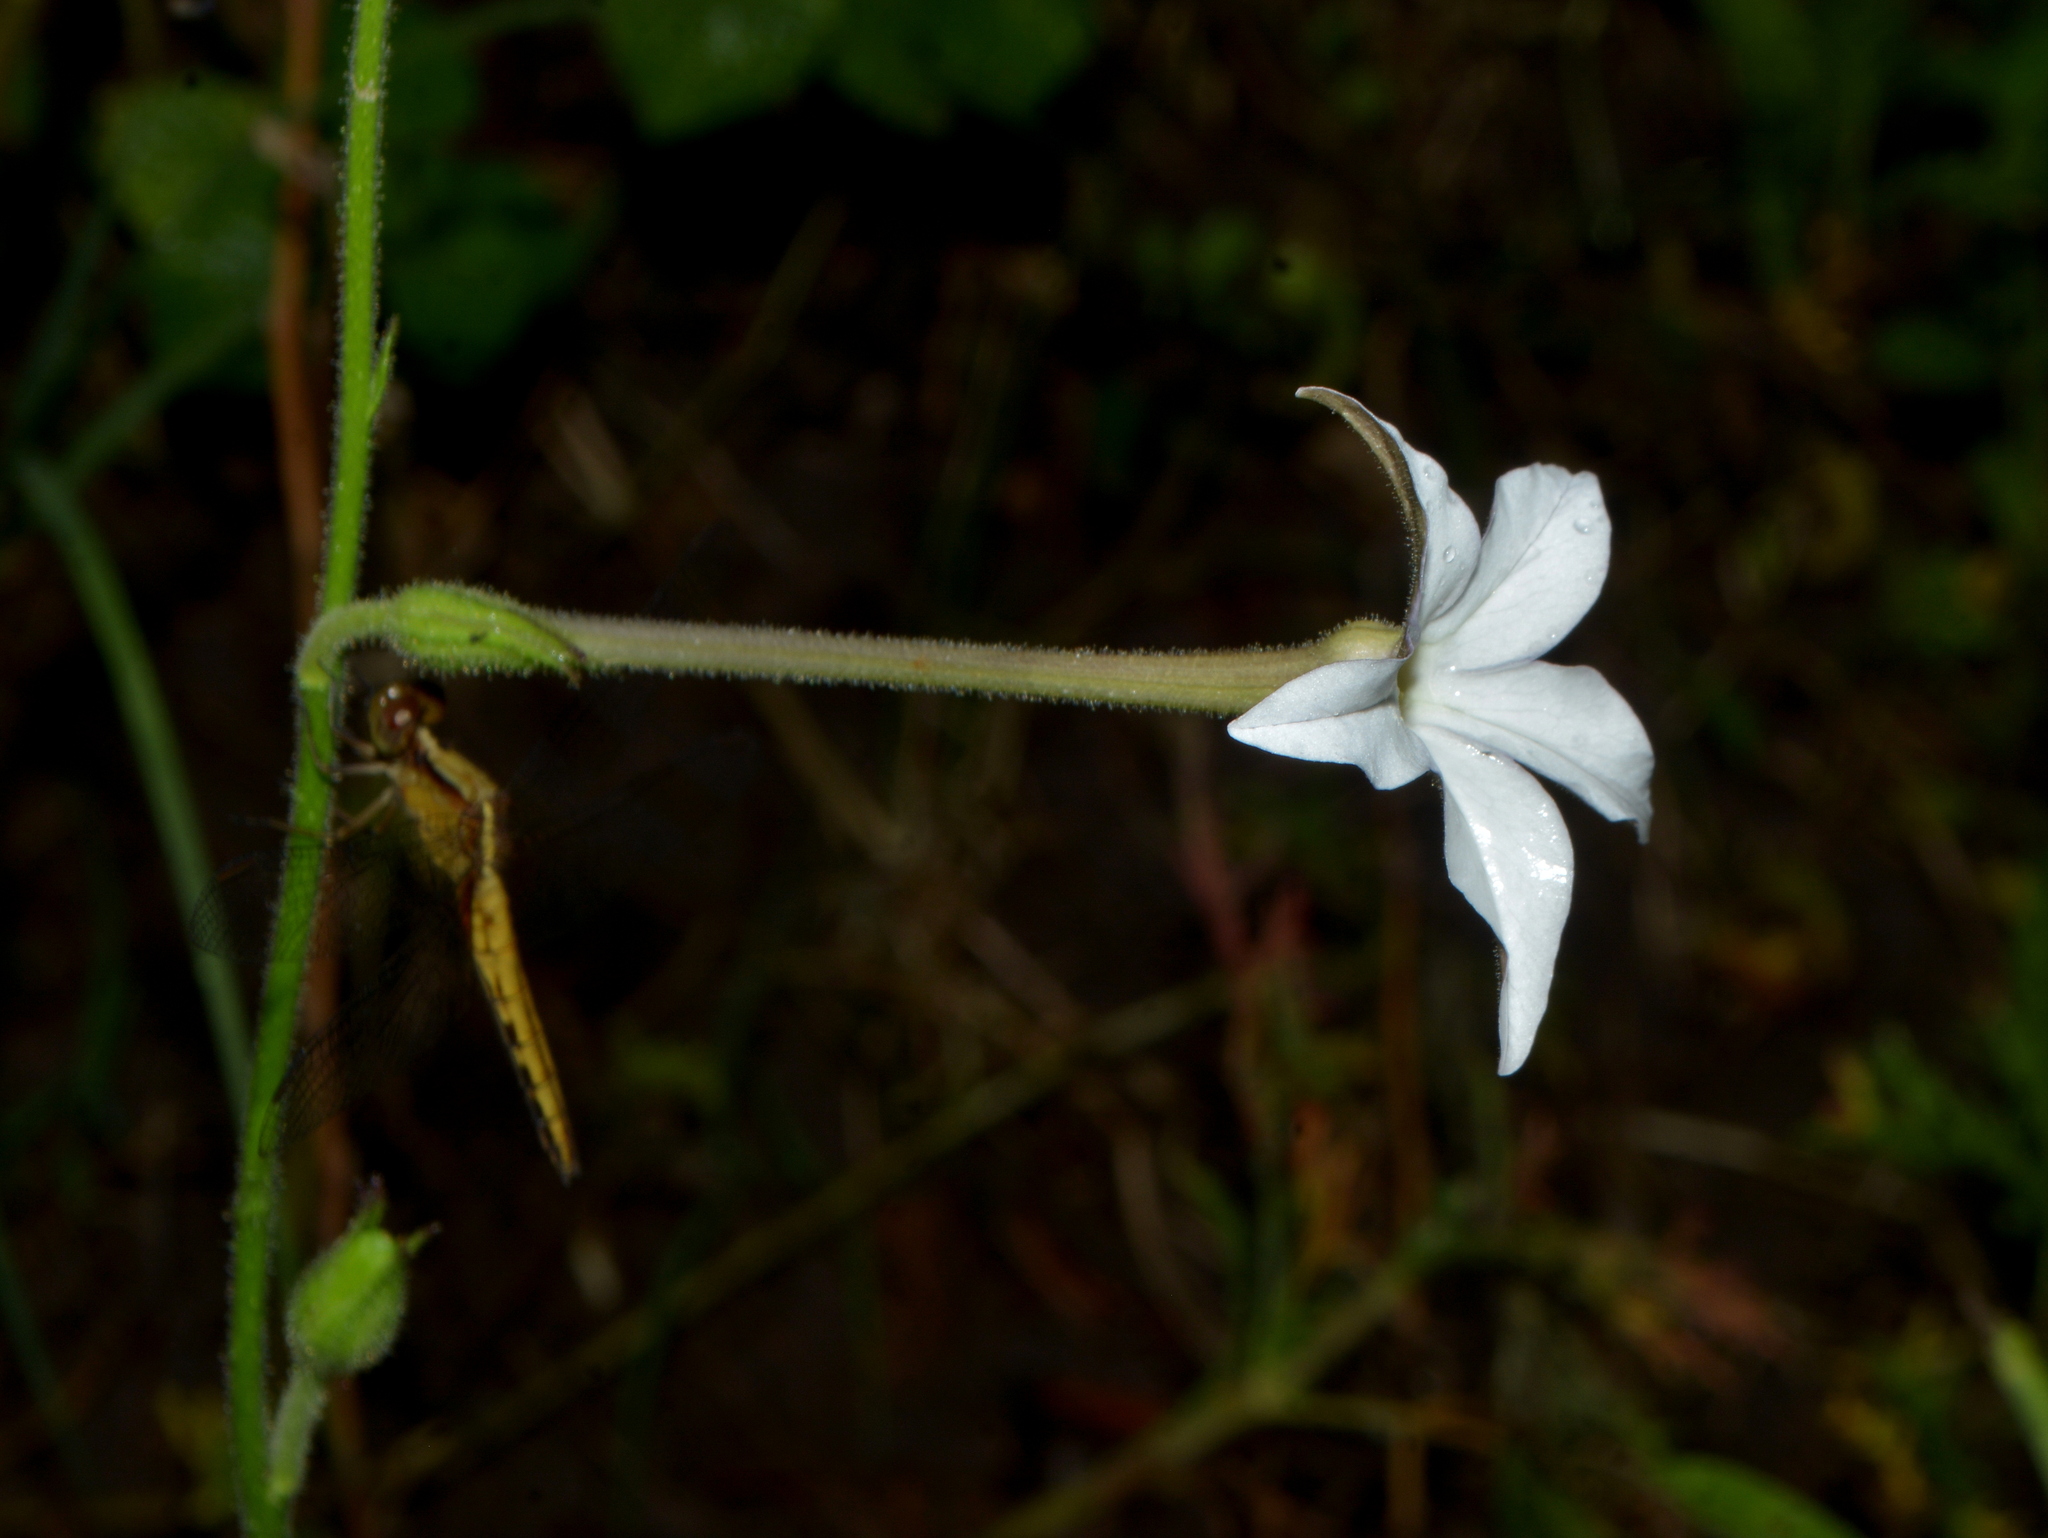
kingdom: Plantae
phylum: Tracheophyta
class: Magnoliopsida
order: Solanales
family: Solanaceae
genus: Nicotiana
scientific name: Nicotiana longiflora
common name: Long-flowered tobacco
